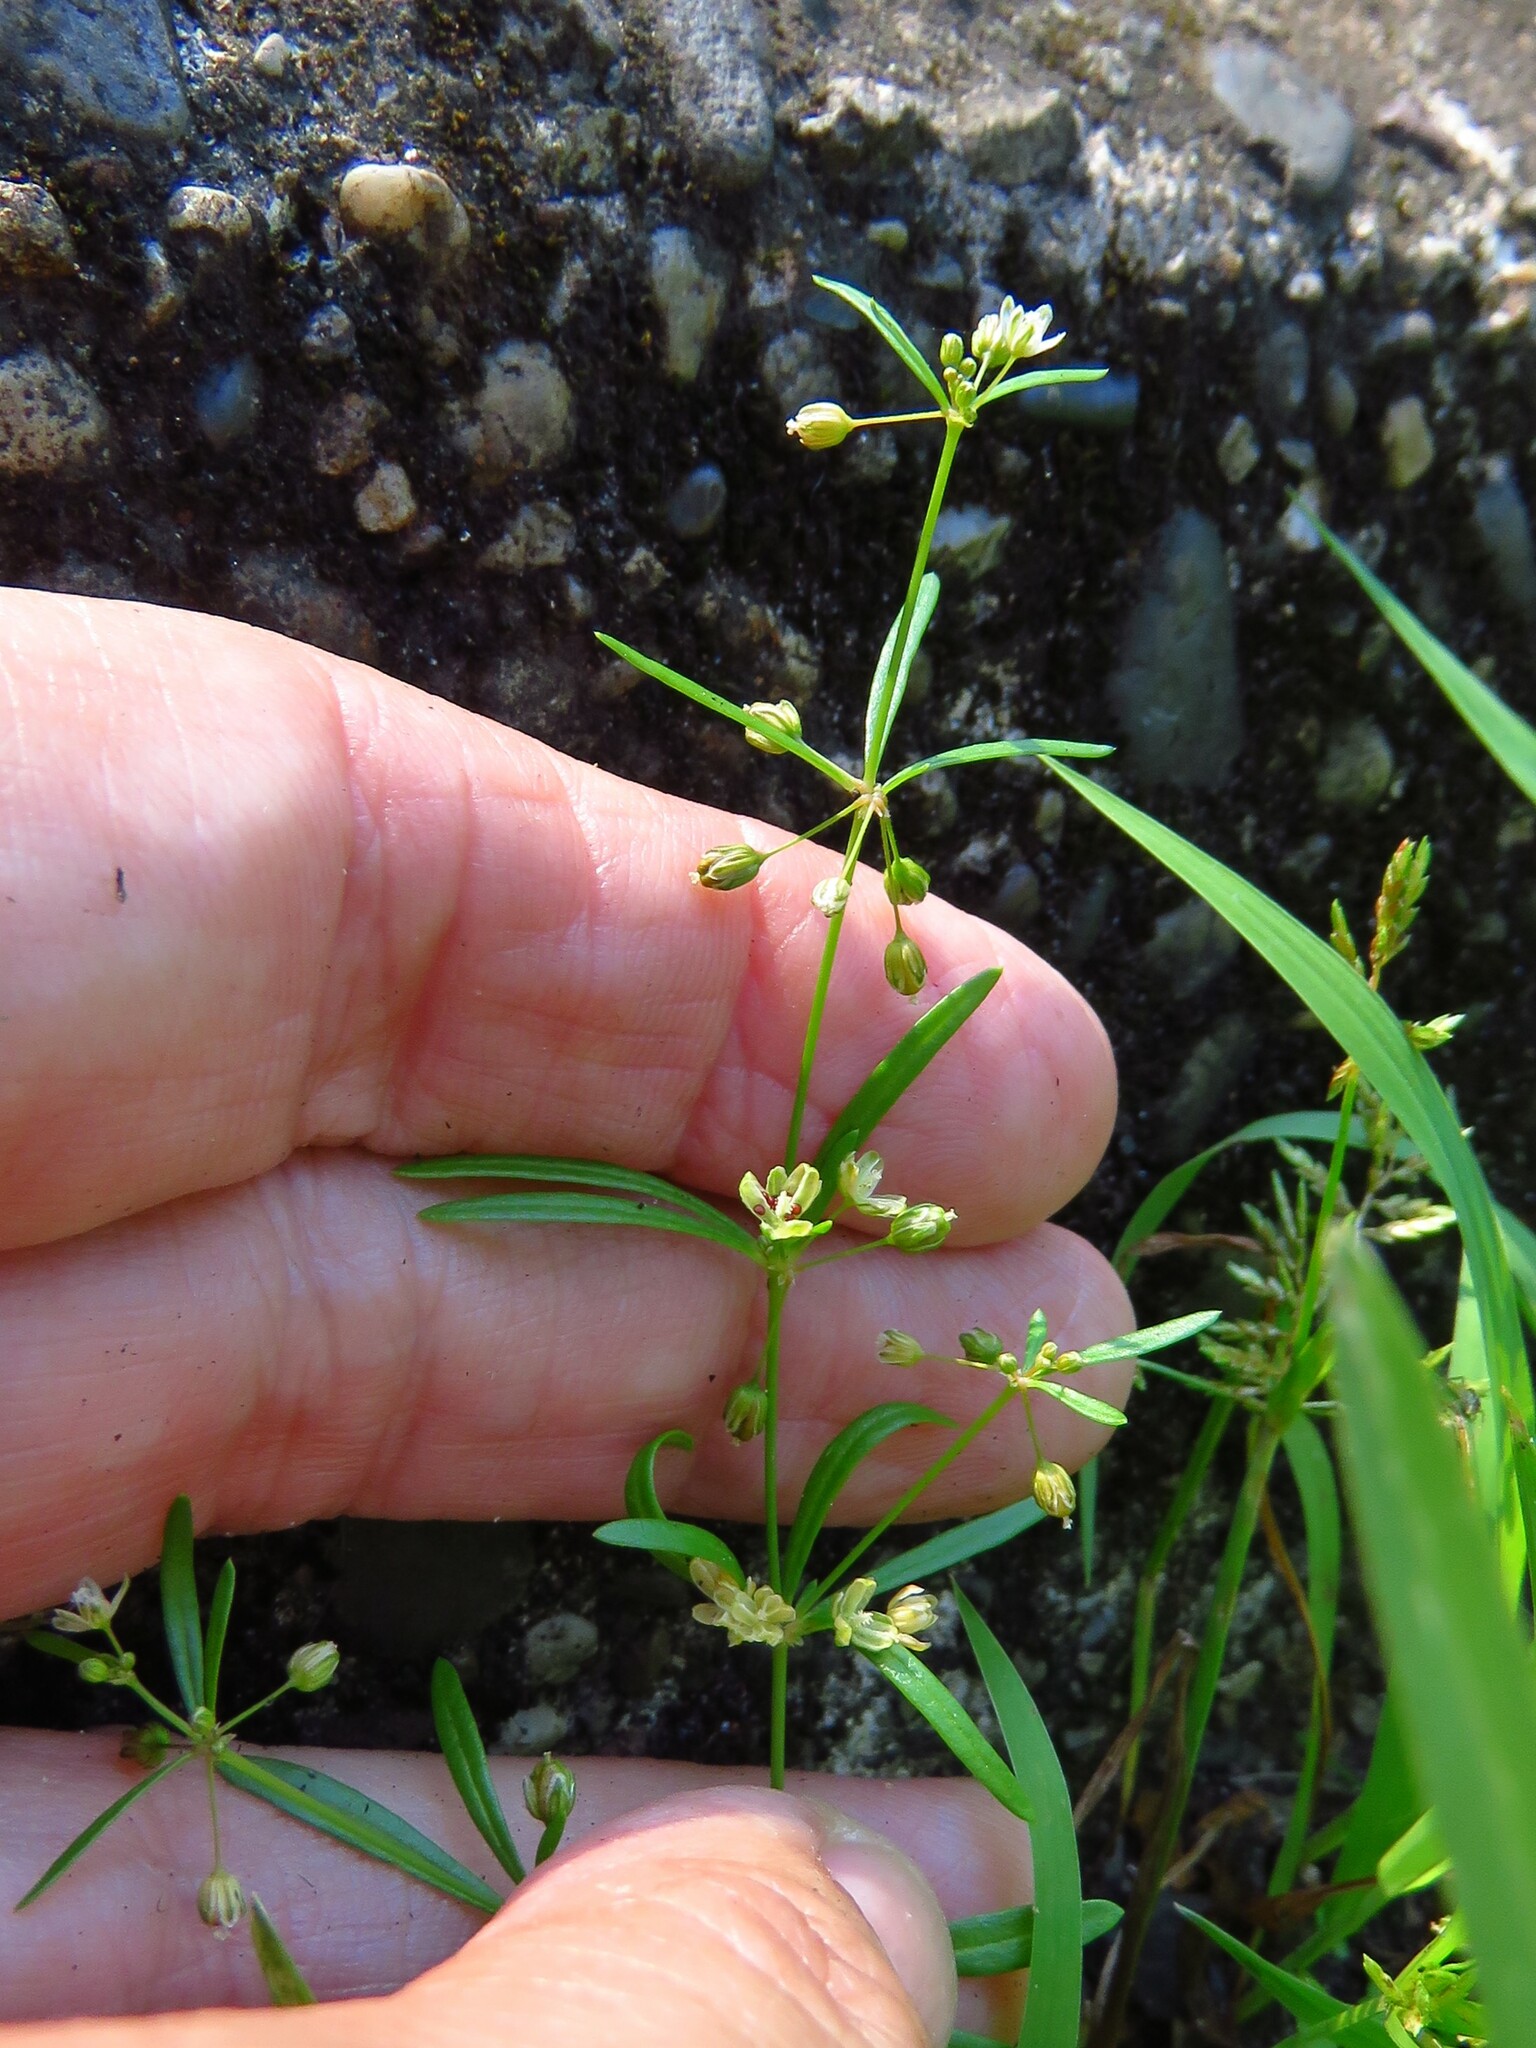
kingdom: Plantae
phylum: Tracheophyta
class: Magnoliopsida
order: Caryophyllales
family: Molluginaceae
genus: Mollugo
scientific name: Mollugo verticillata
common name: Green carpetweed
